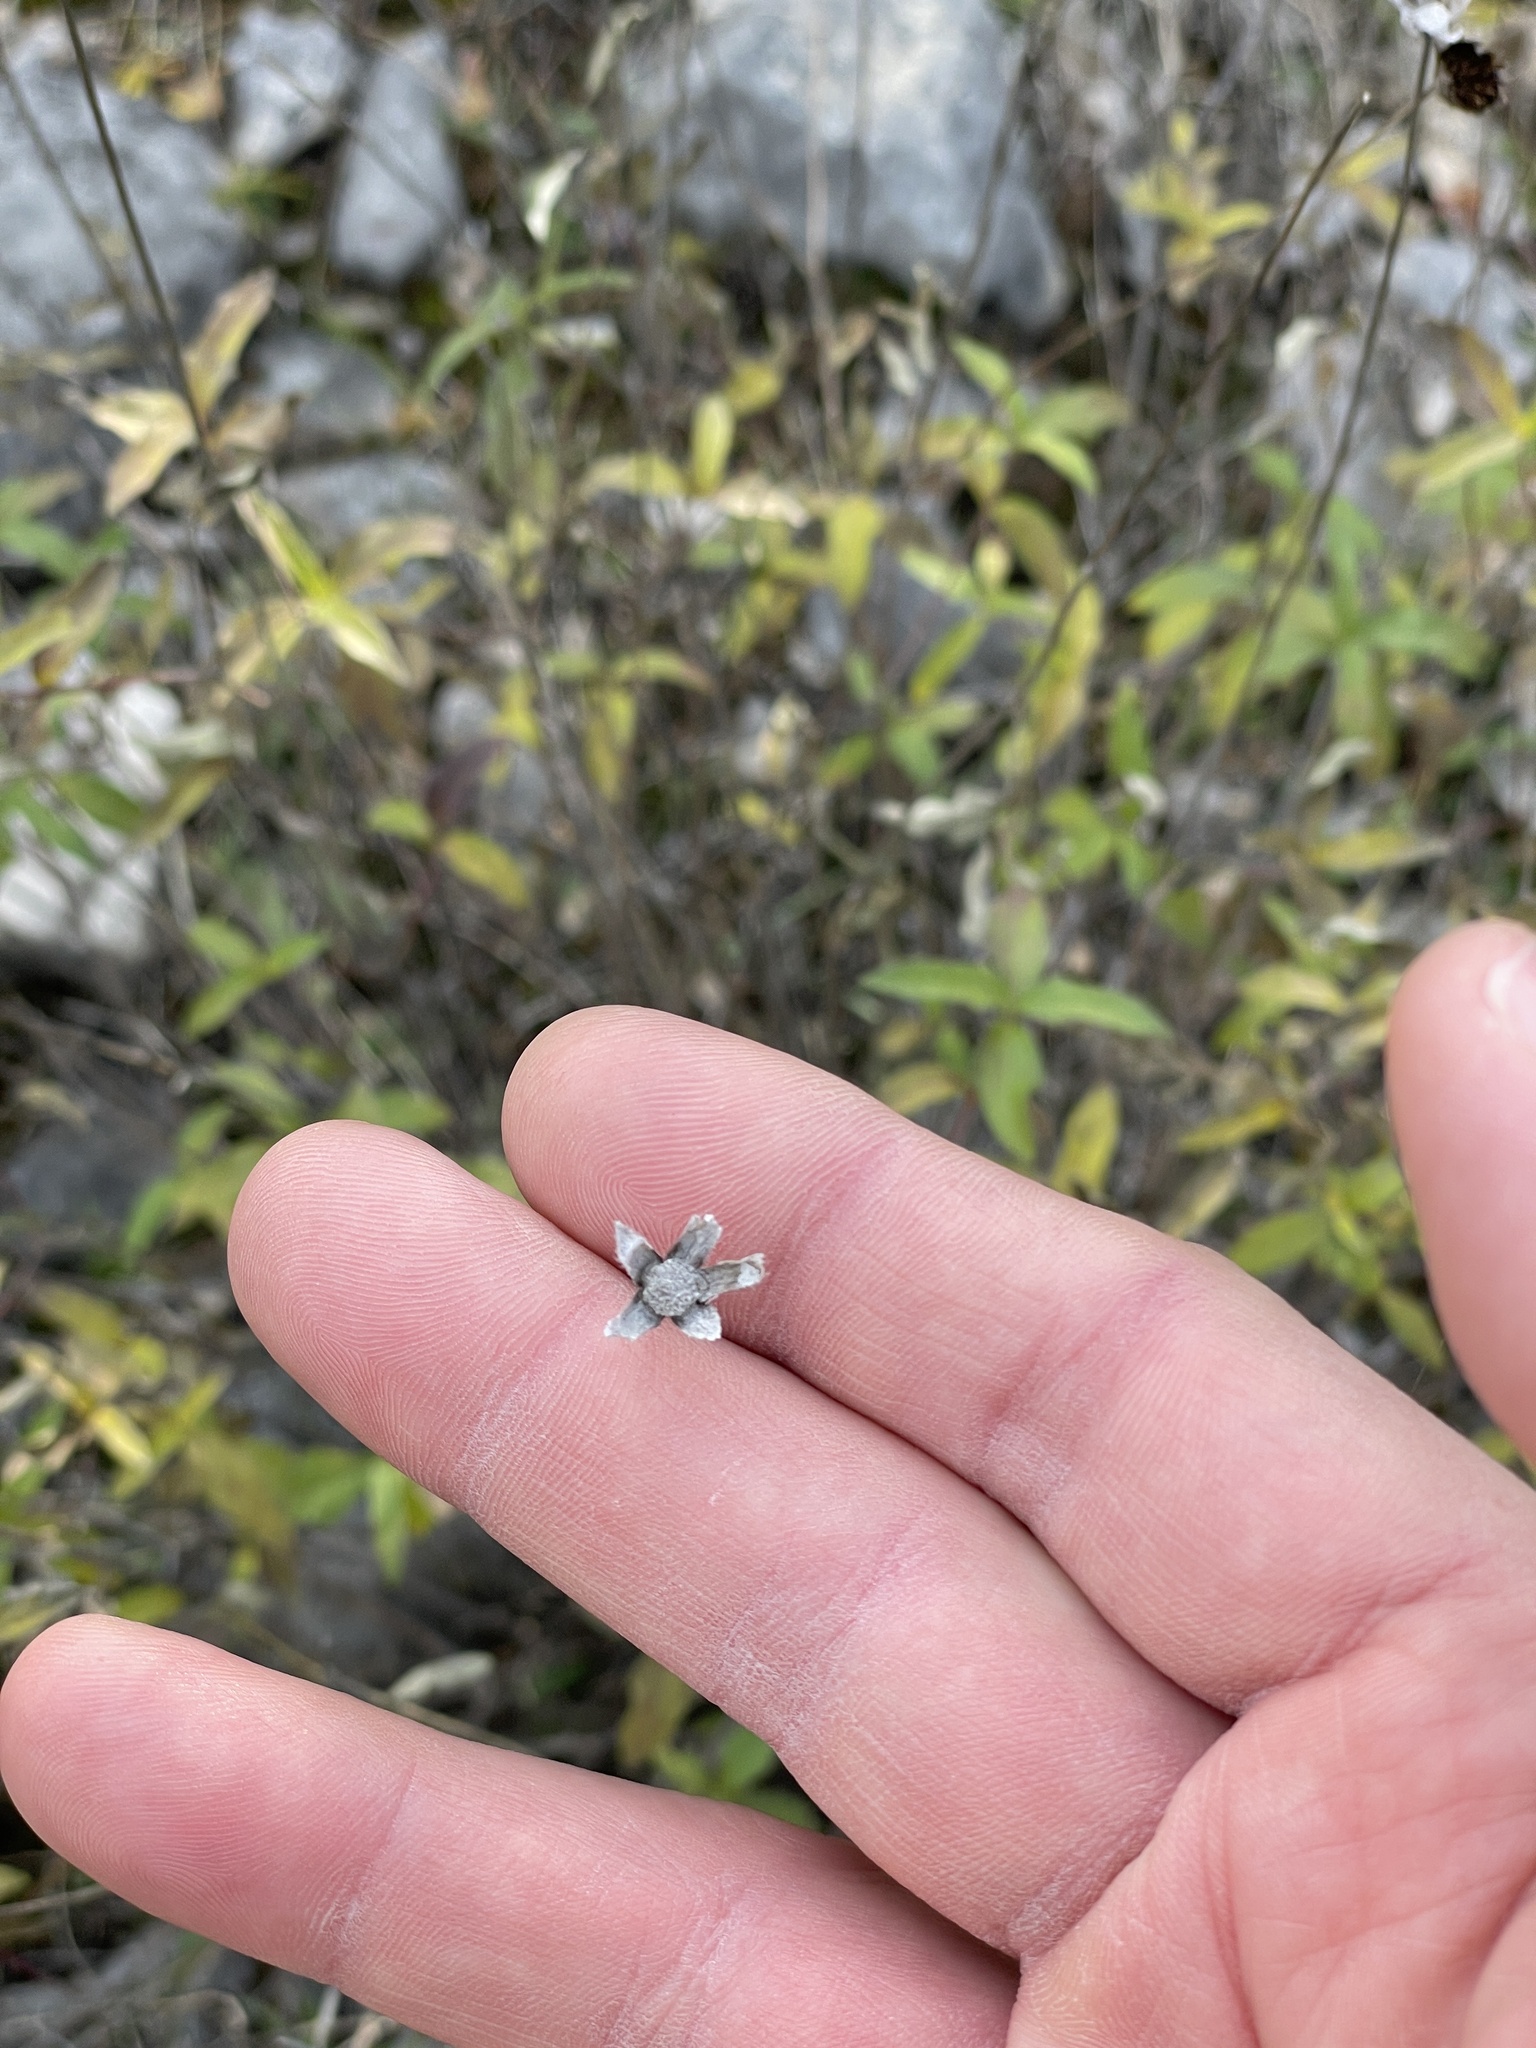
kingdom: Plantae
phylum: Tracheophyta
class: Magnoliopsida
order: Asterales
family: Asteraceae
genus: Wedelia
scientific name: Wedelia acapulcensis
